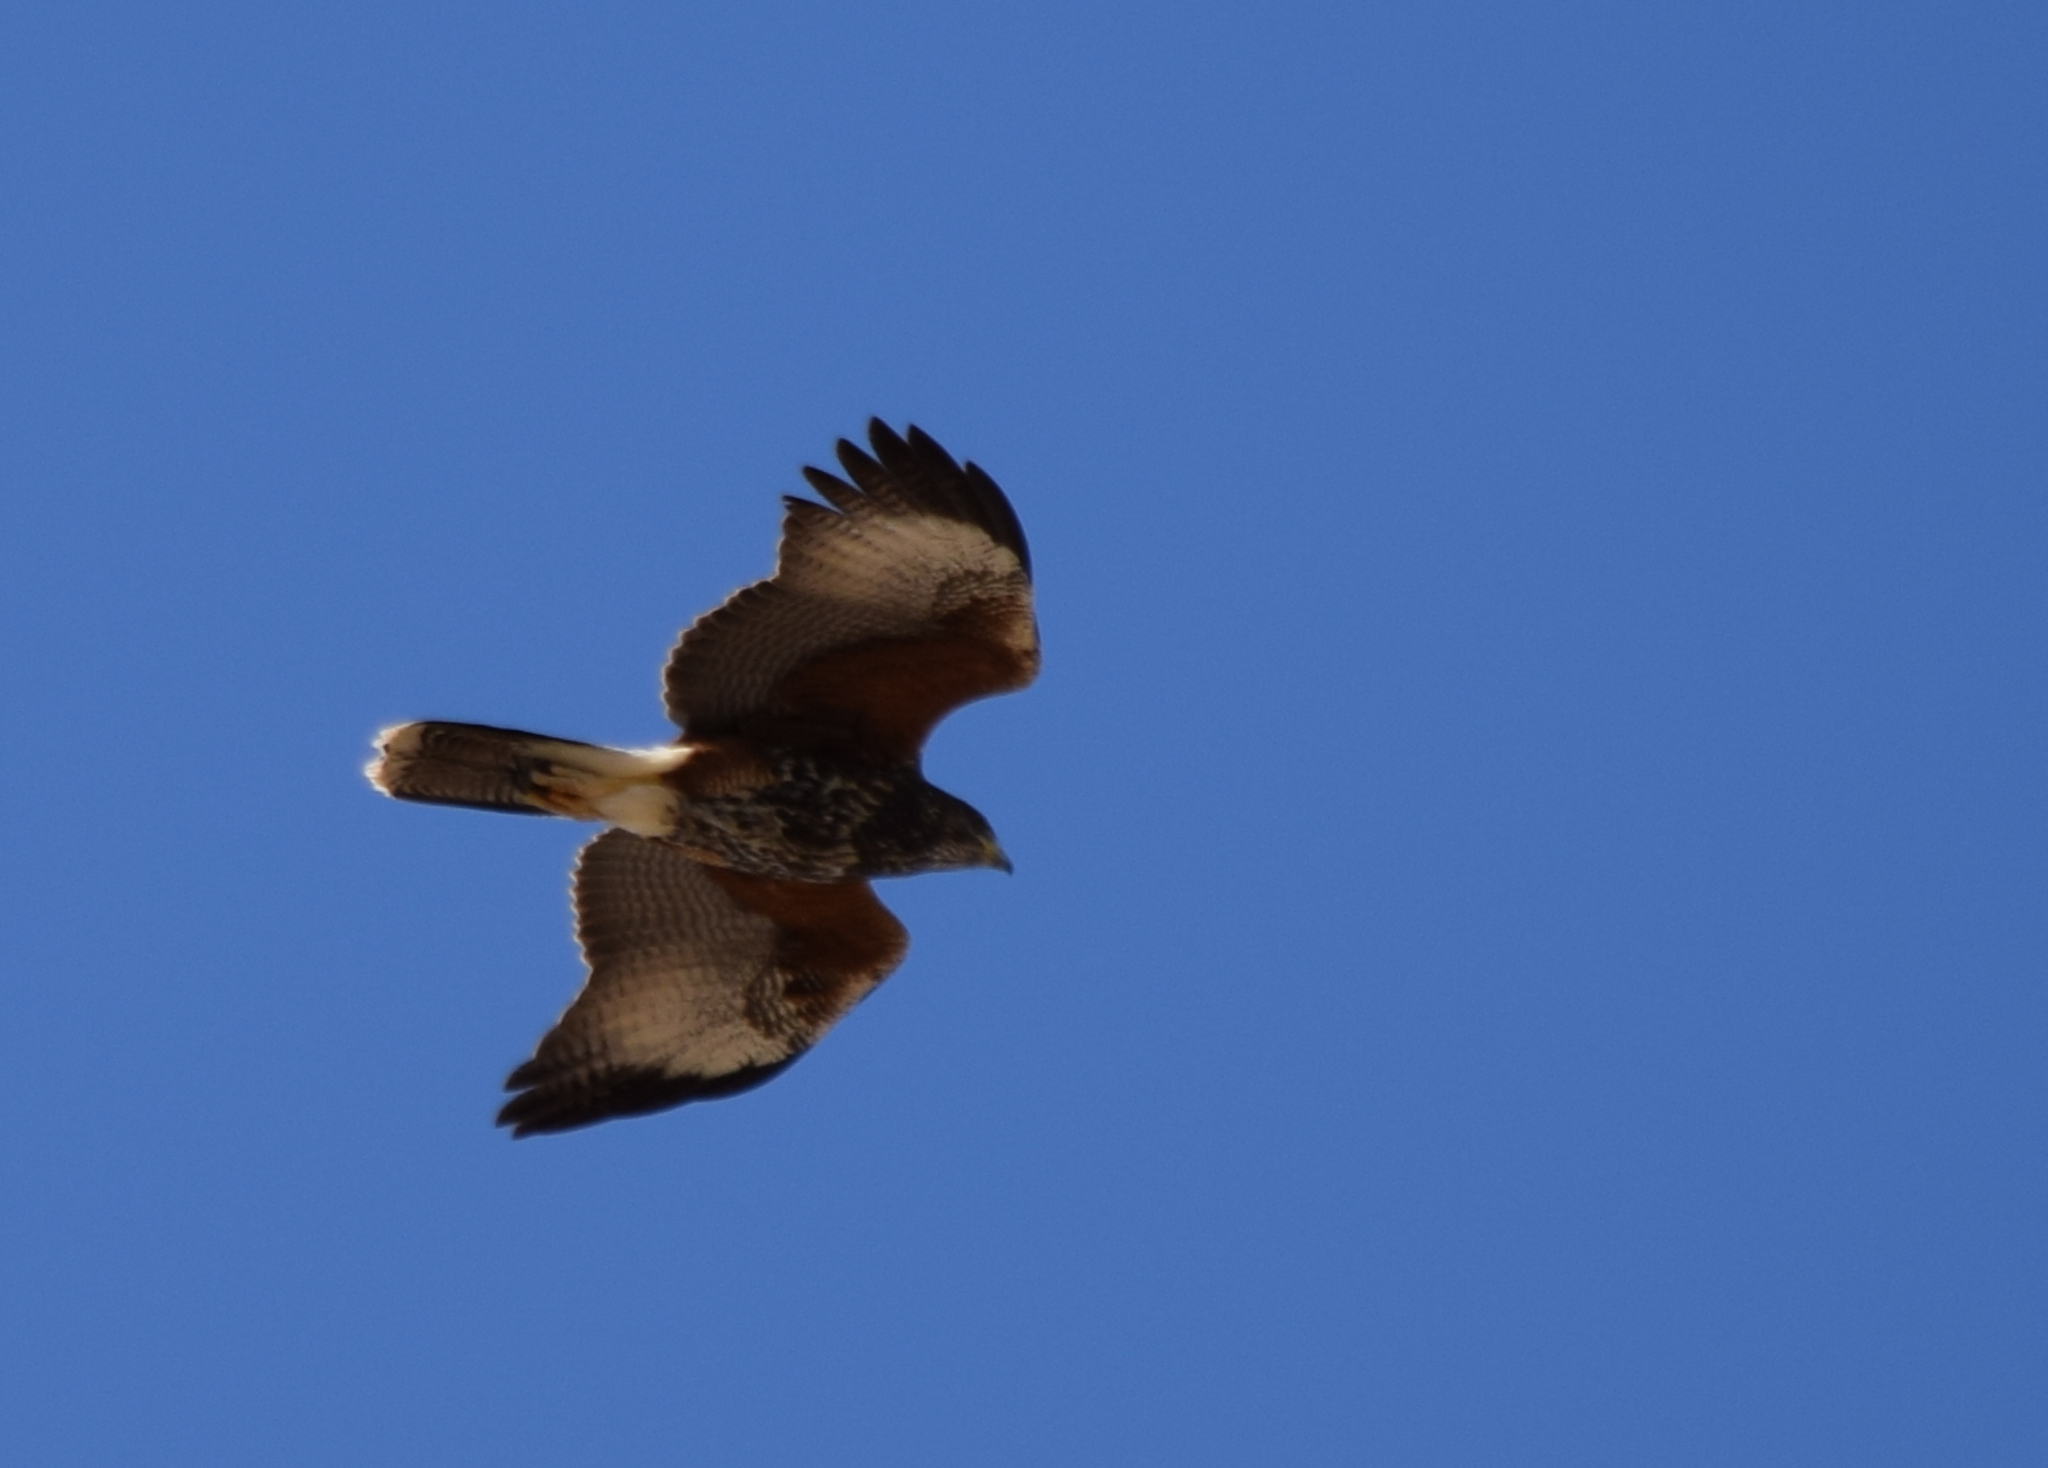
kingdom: Animalia
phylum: Chordata
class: Aves
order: Accipitriformes
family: Accipitridae
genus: Parabuteo
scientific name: Parabuteo unicinctus
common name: Harris's hawk
